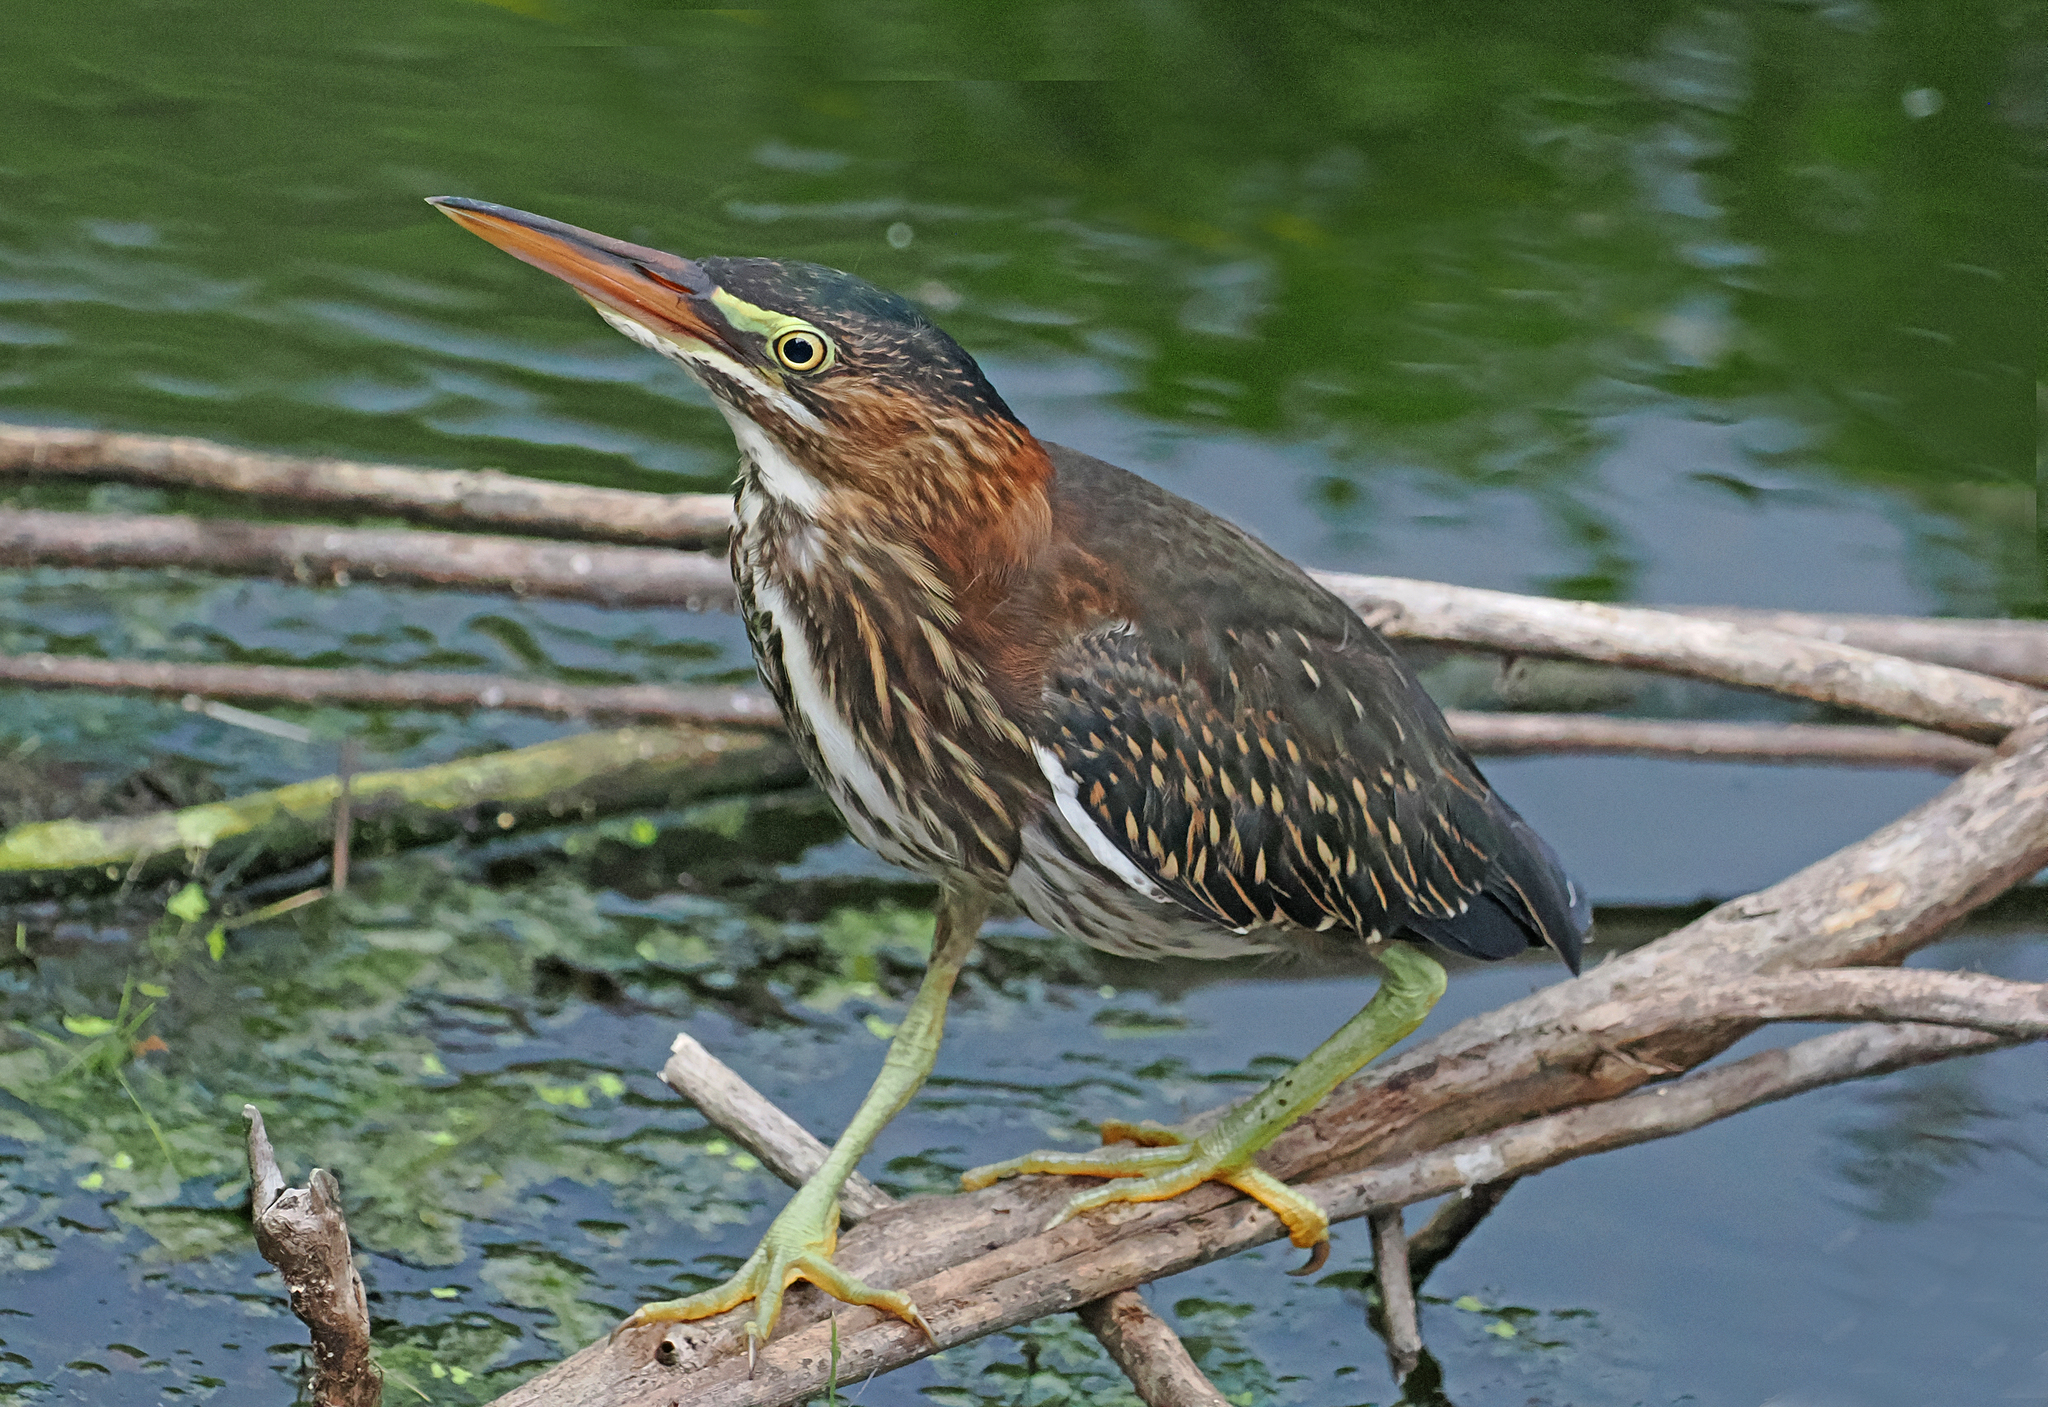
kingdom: Animalia
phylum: Chordata
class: Aves
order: Pelecaniformes
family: Ardeidae
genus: Butorides
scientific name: Butorides virescens
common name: Green heron
